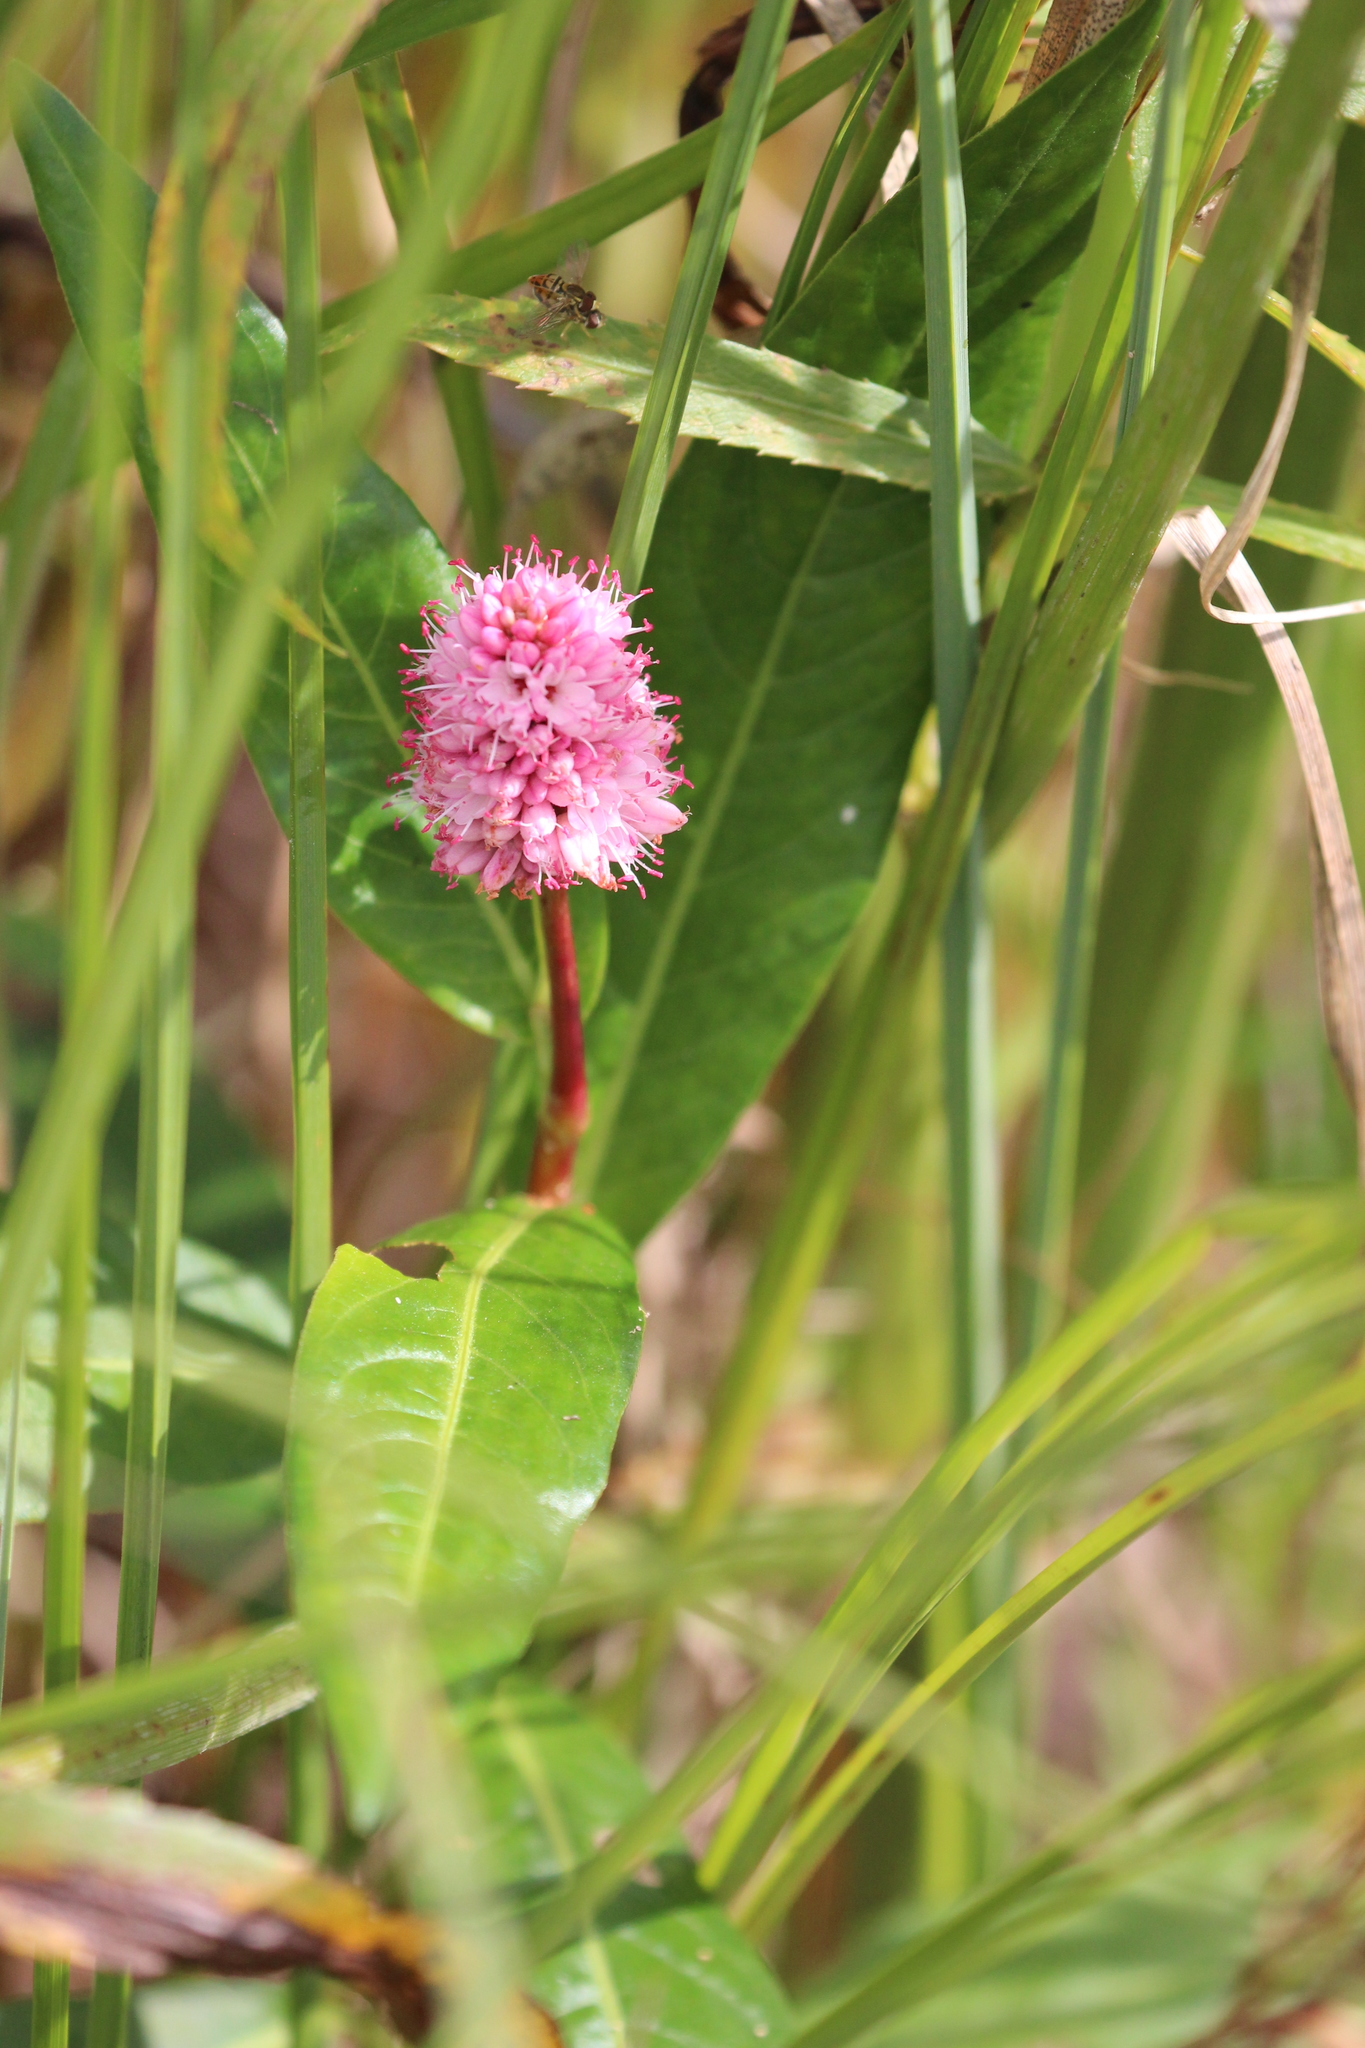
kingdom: Plantae
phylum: Tracheophyta
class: Magnoliopsida
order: Caryophyllales
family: Polygonaceae
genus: Persicaria
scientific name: Persicaria amphibia
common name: Amphibious bistort
